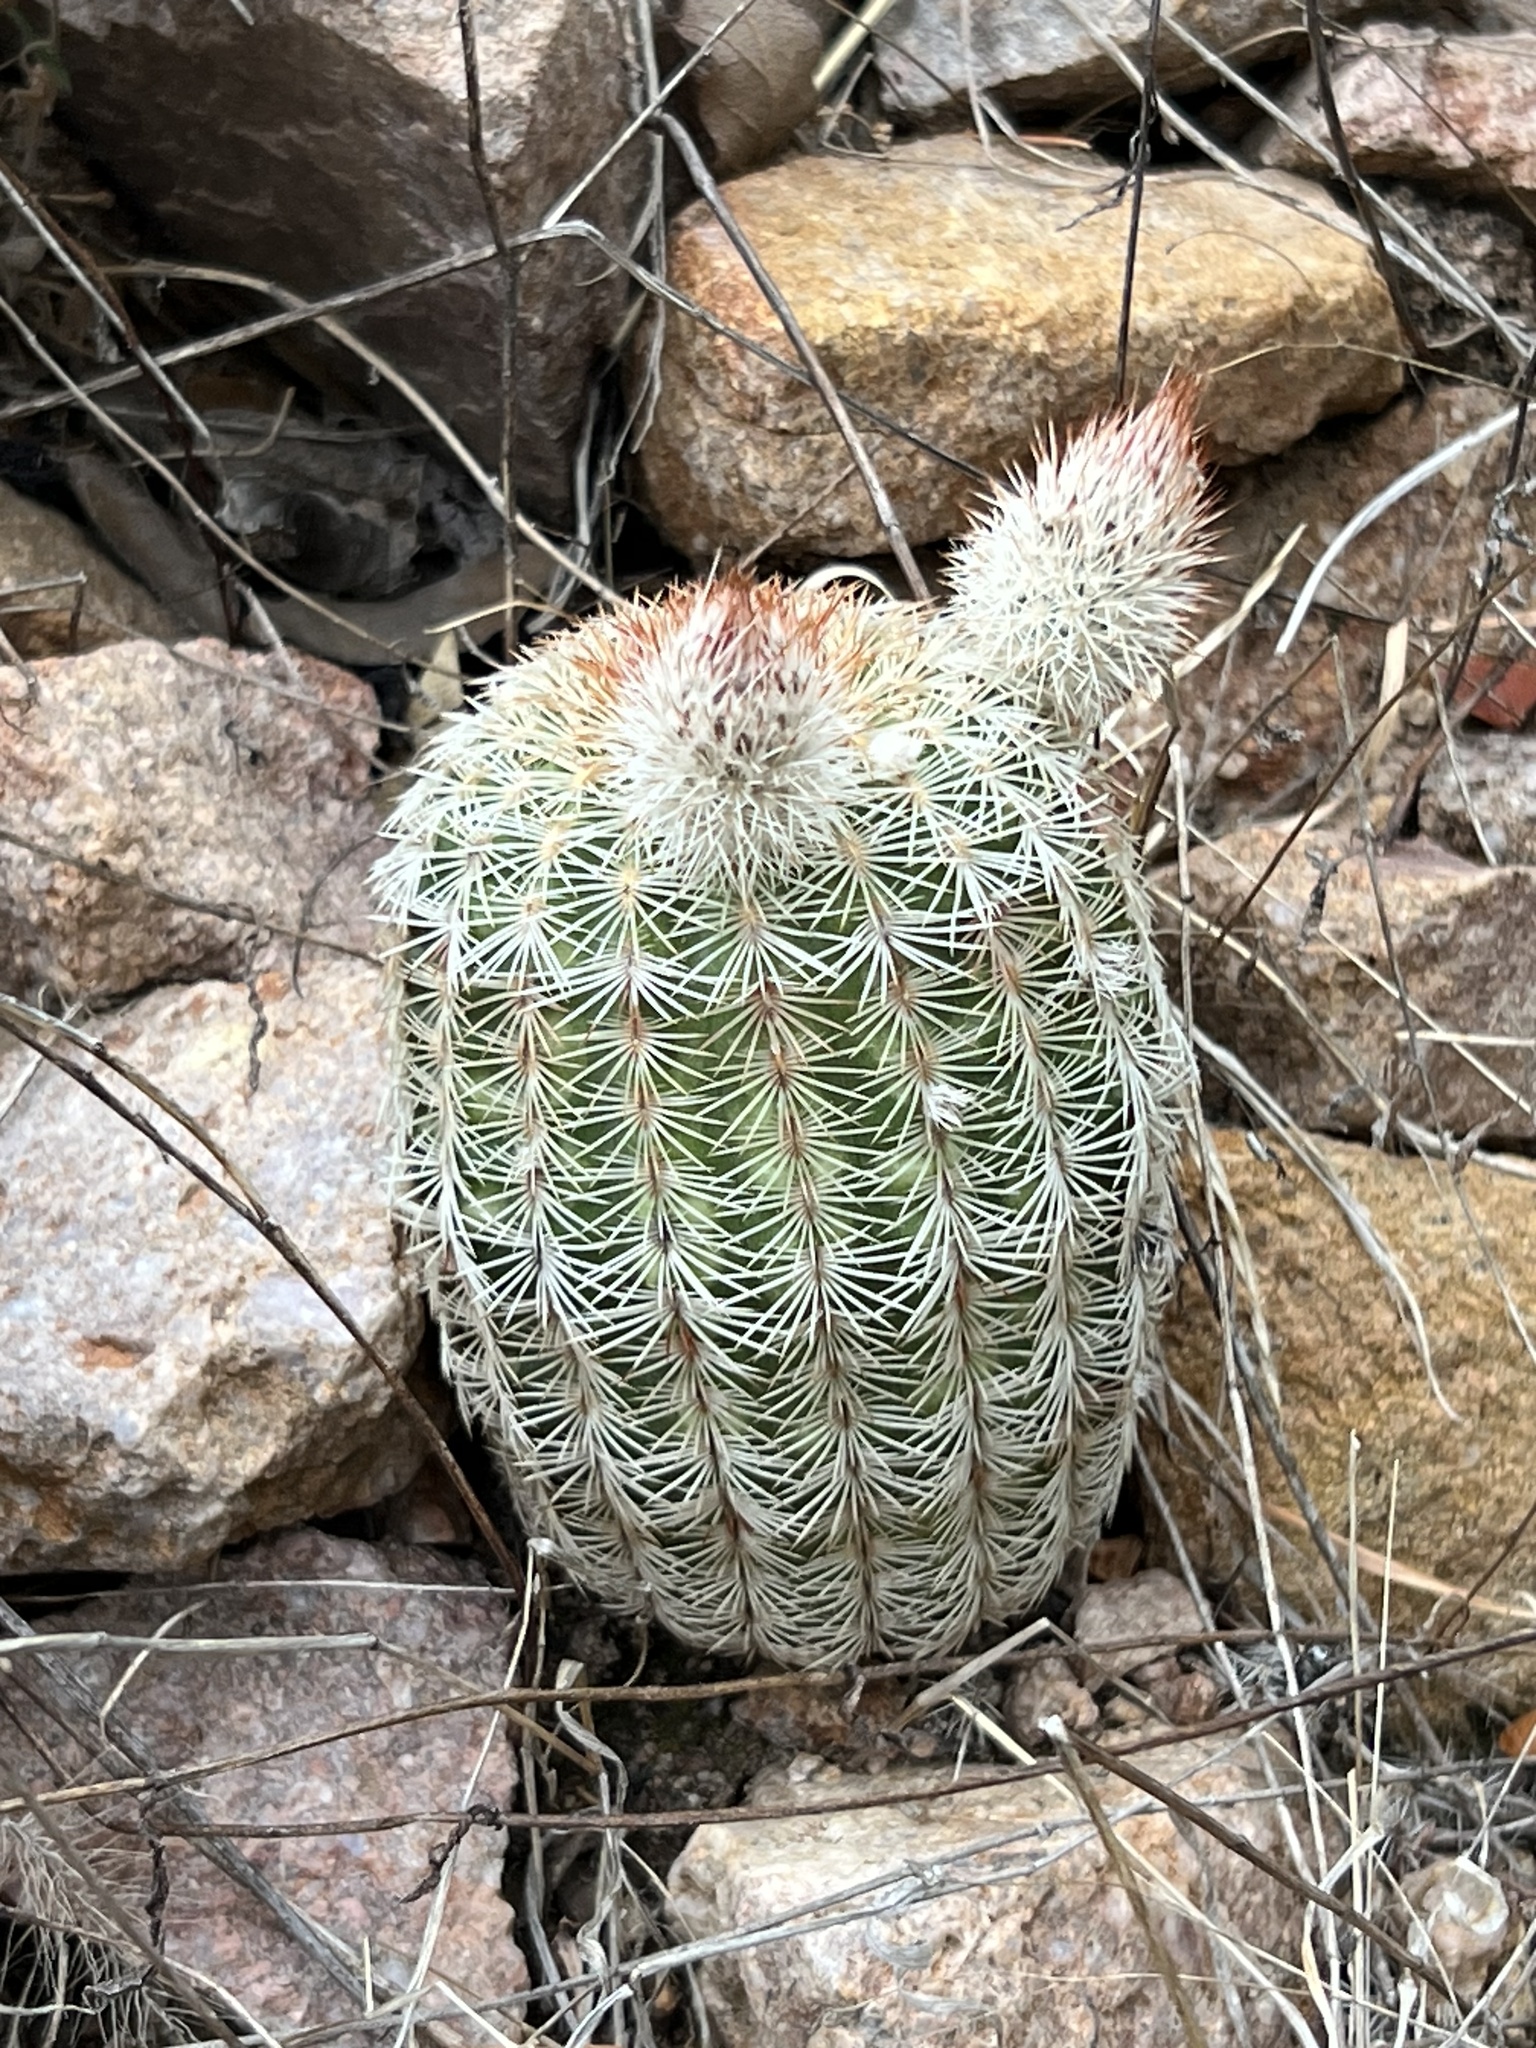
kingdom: Plantae
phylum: Tracheophyta
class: Magnoliopsida
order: Caryophyllales
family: Cactaceae
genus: Echinocereus
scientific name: Echinocereus rigidissimus
